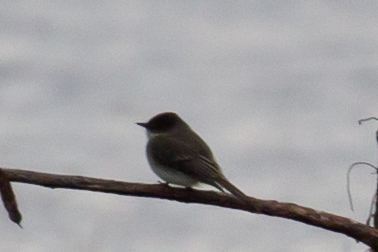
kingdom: Animalia
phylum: Chordata
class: Aves
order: Passeriformes
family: Tyrannidae
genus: Sayornis
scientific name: Sayornis phoebe
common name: Eastern phoebe
